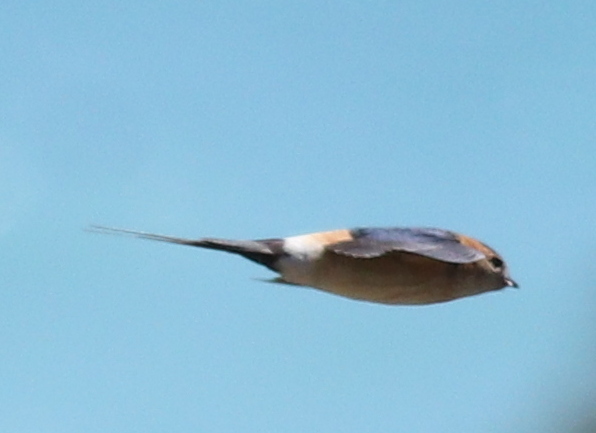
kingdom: Animalia
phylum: Chordata
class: Aves
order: Passeriformes
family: Hirundinidae
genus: Cecropis
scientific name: Cecropis daurica
